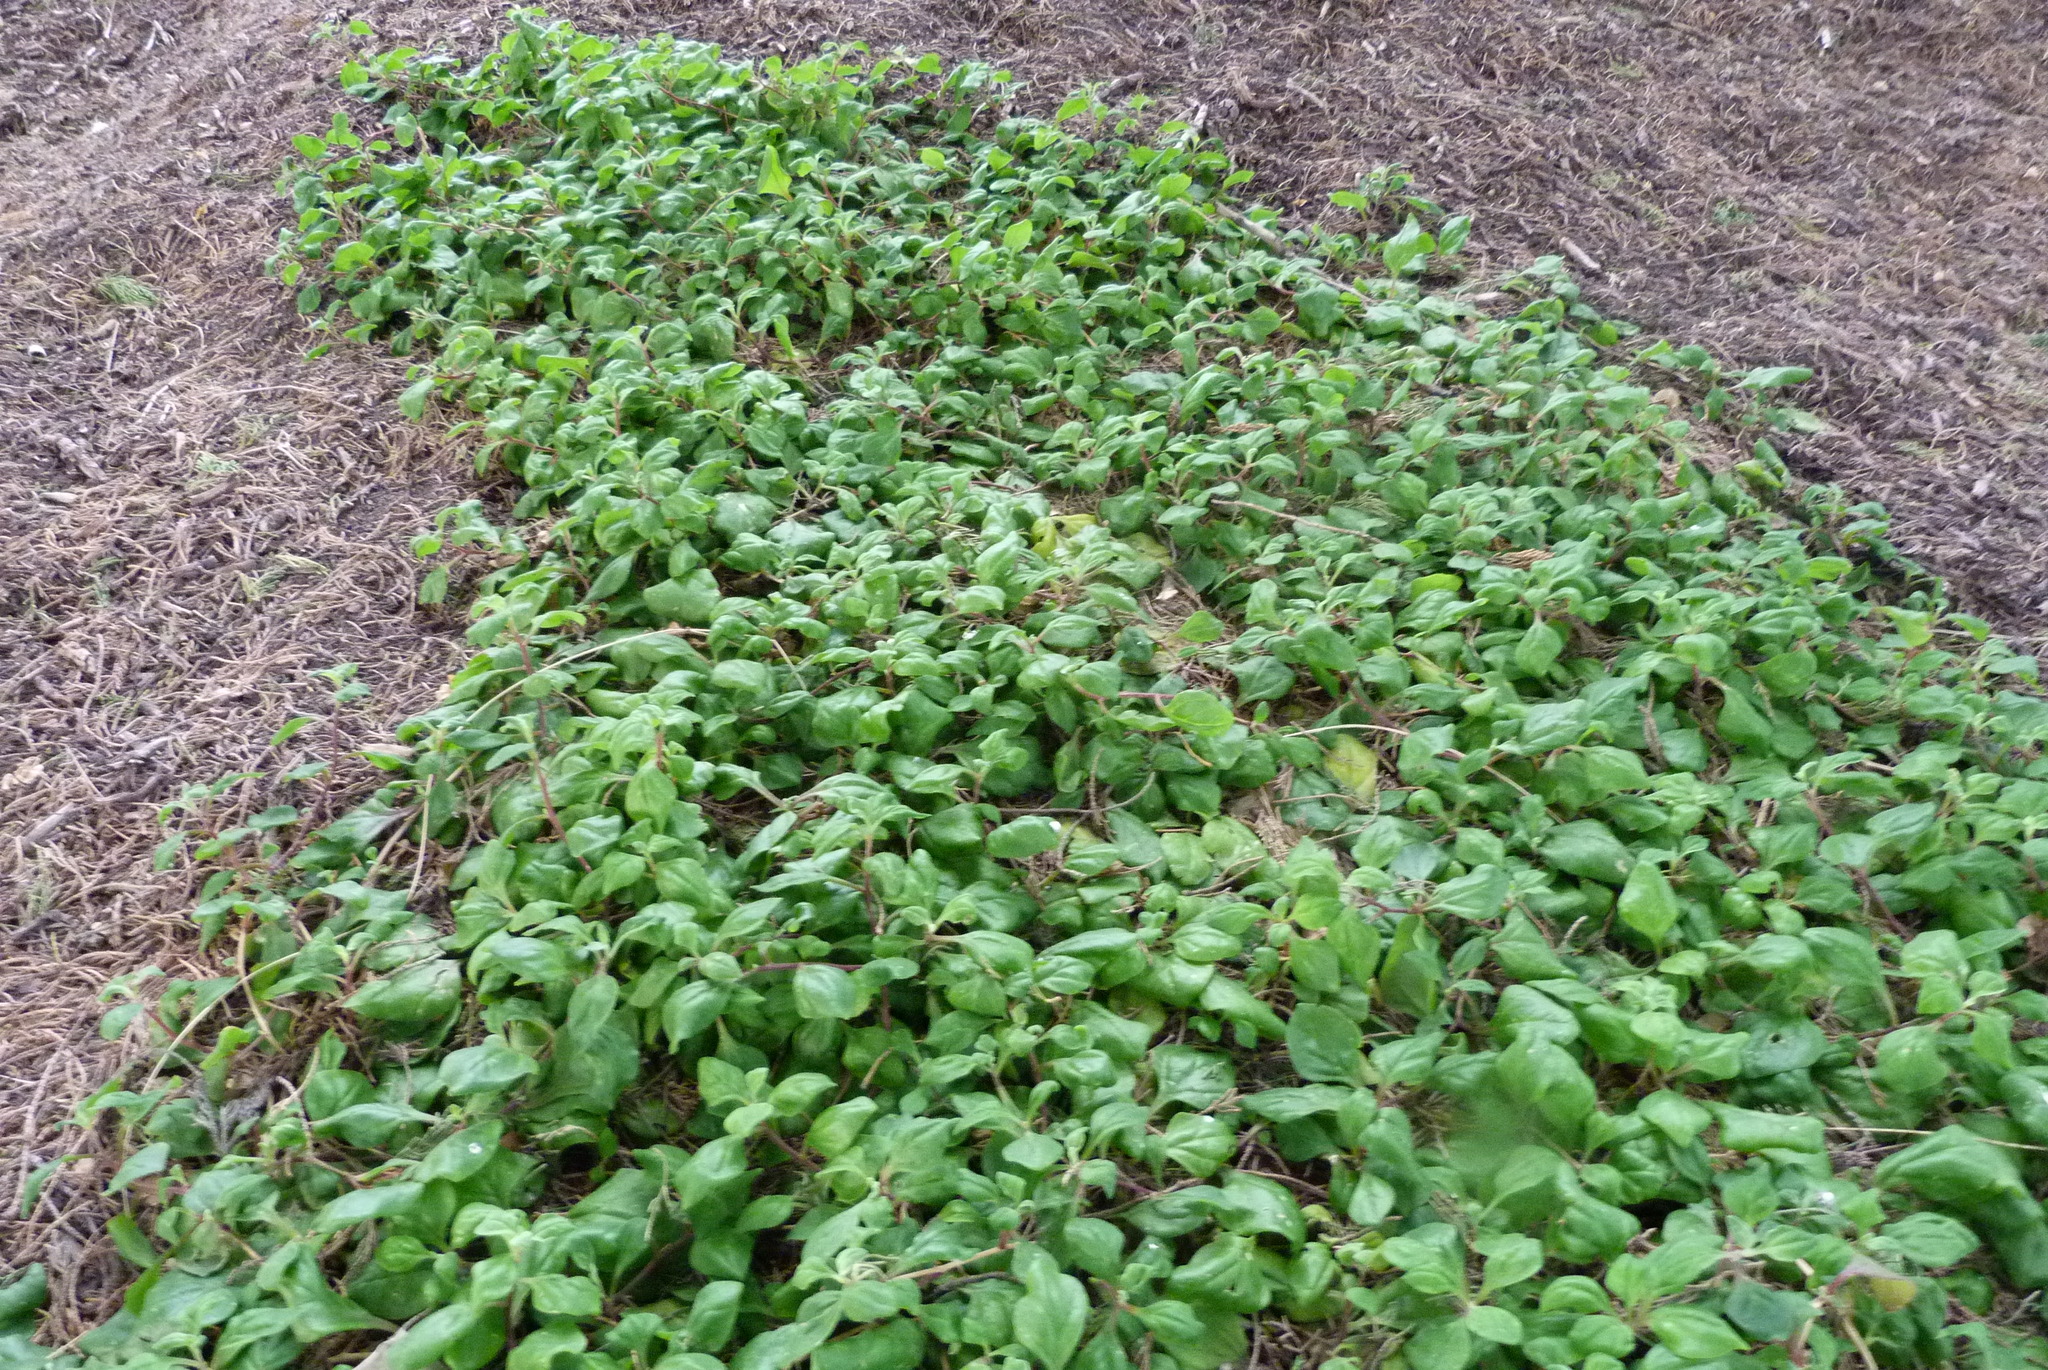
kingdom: Plantae
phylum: Tracheophyta
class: Magnoliopsida
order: Caryophyllales
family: Aizoaceae
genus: Tetragonia
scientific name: Tetragonia tetragonoides
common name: New zealand-spinach
